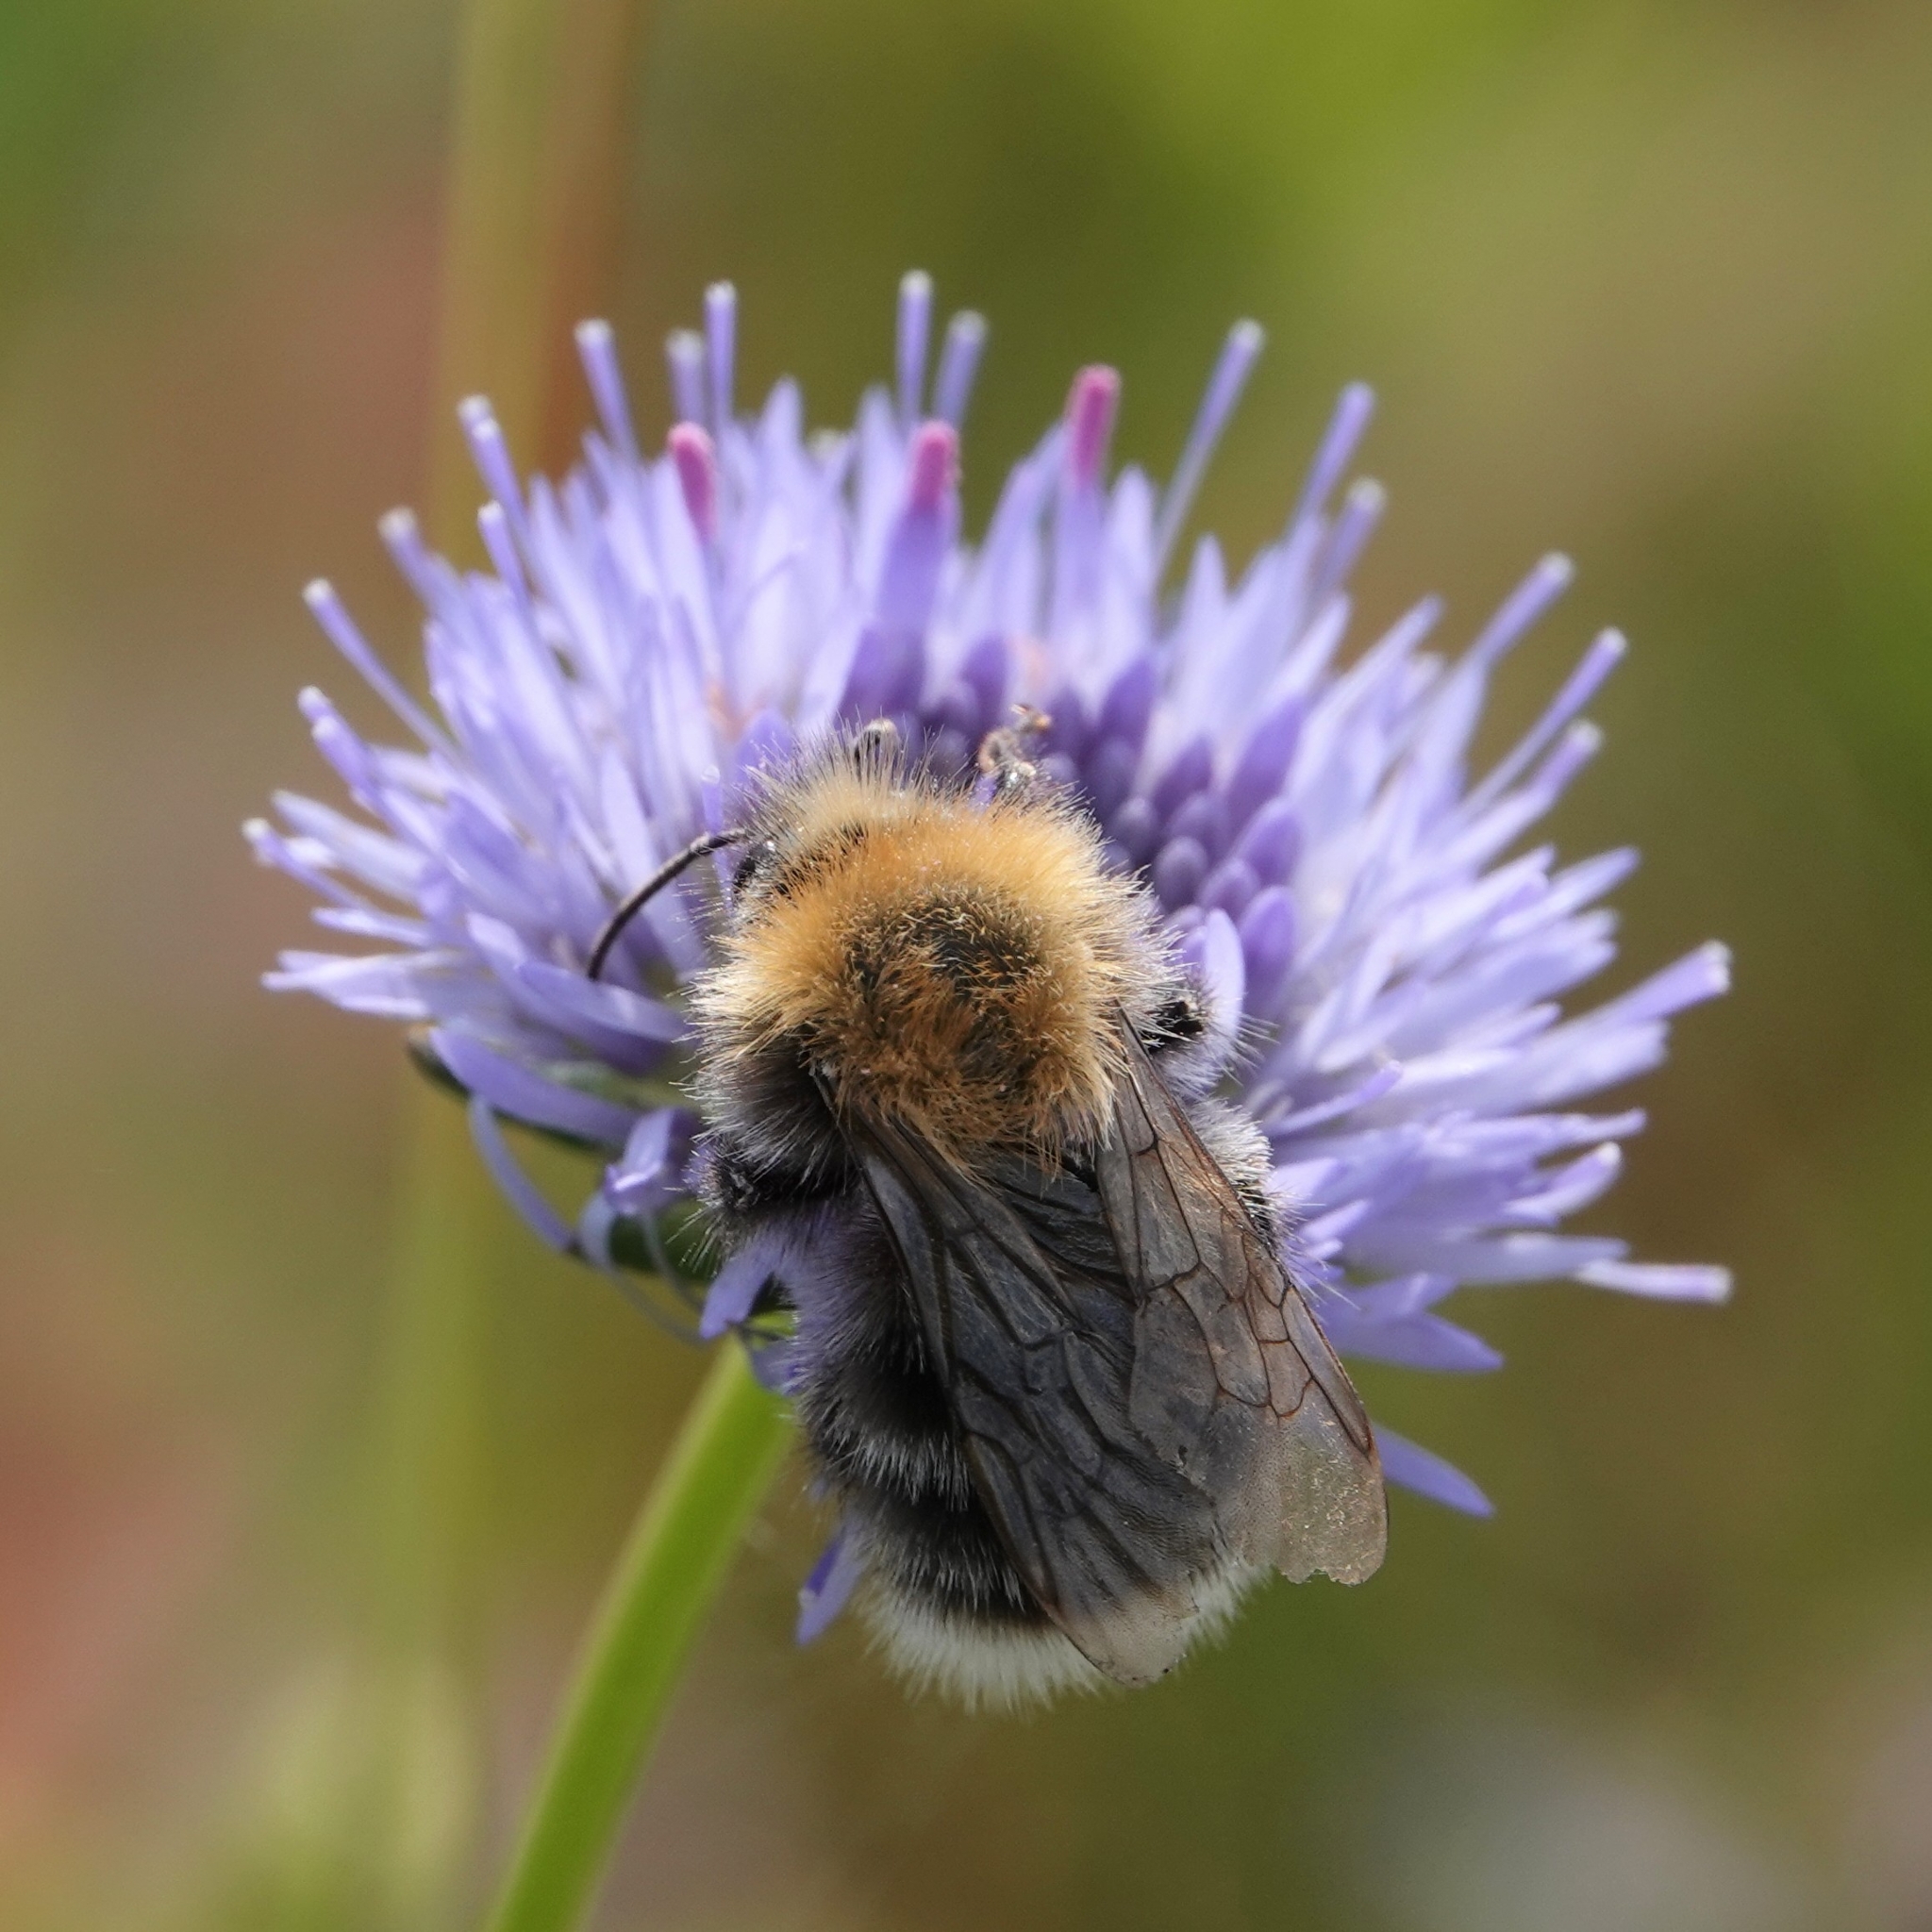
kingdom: Animalia
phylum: Arthropoda
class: Insecta
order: Hymenoptera
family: Apidae
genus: Bombus
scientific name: Bombus hypnorum
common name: New garden bumblebee
